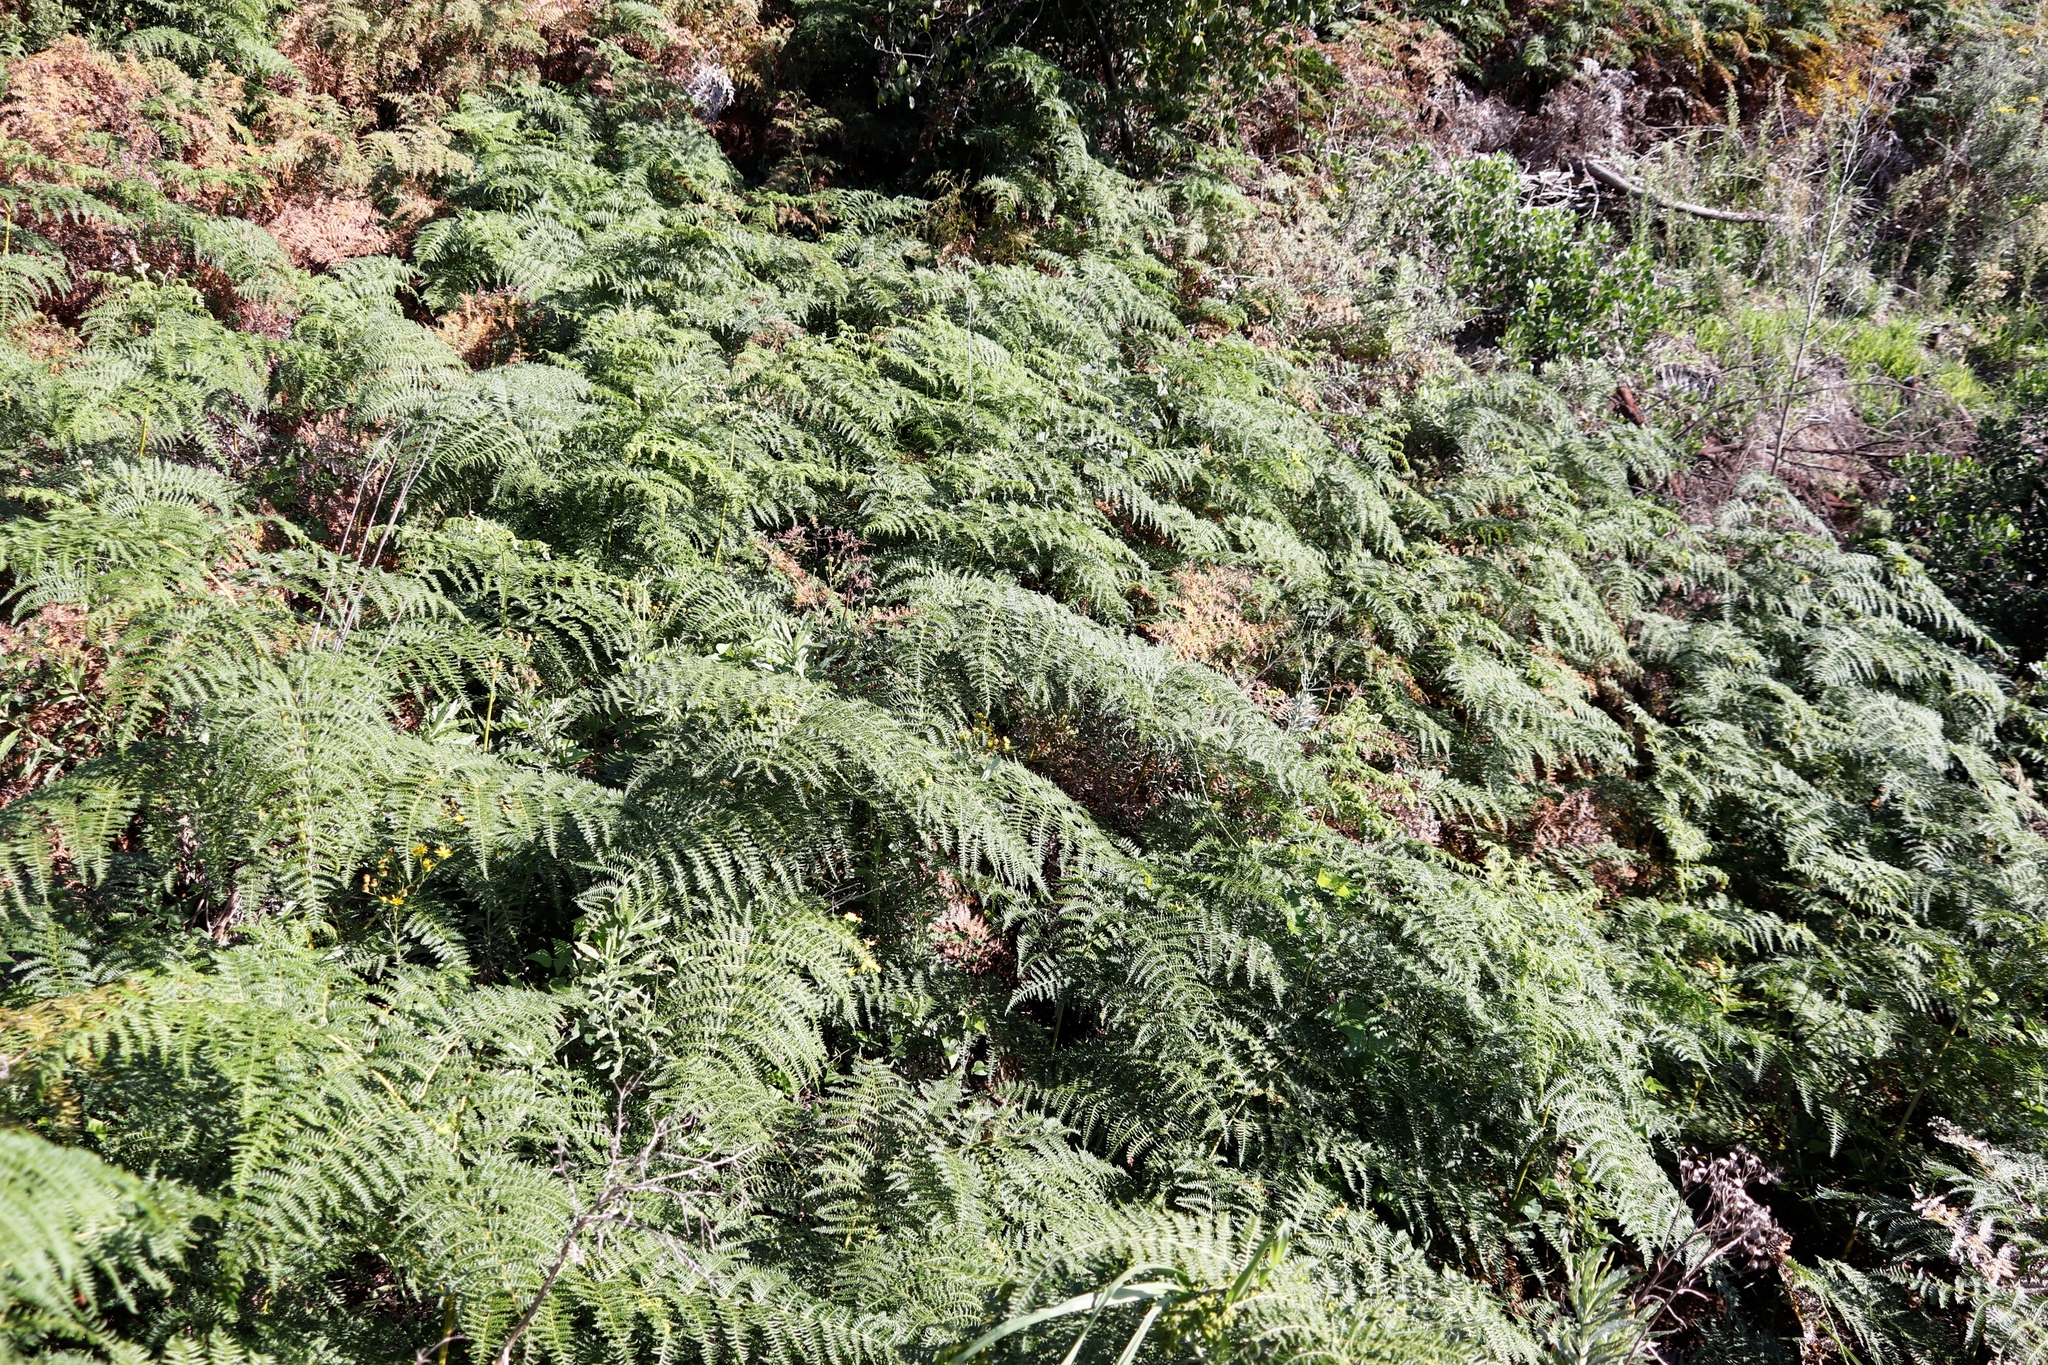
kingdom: Plantae
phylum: Tracheophyta
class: Polypodiopsida
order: Polypodiales
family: Dennstaedtiaceae
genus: Pteridium
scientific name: Pteridium aquilinum
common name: Bracken
